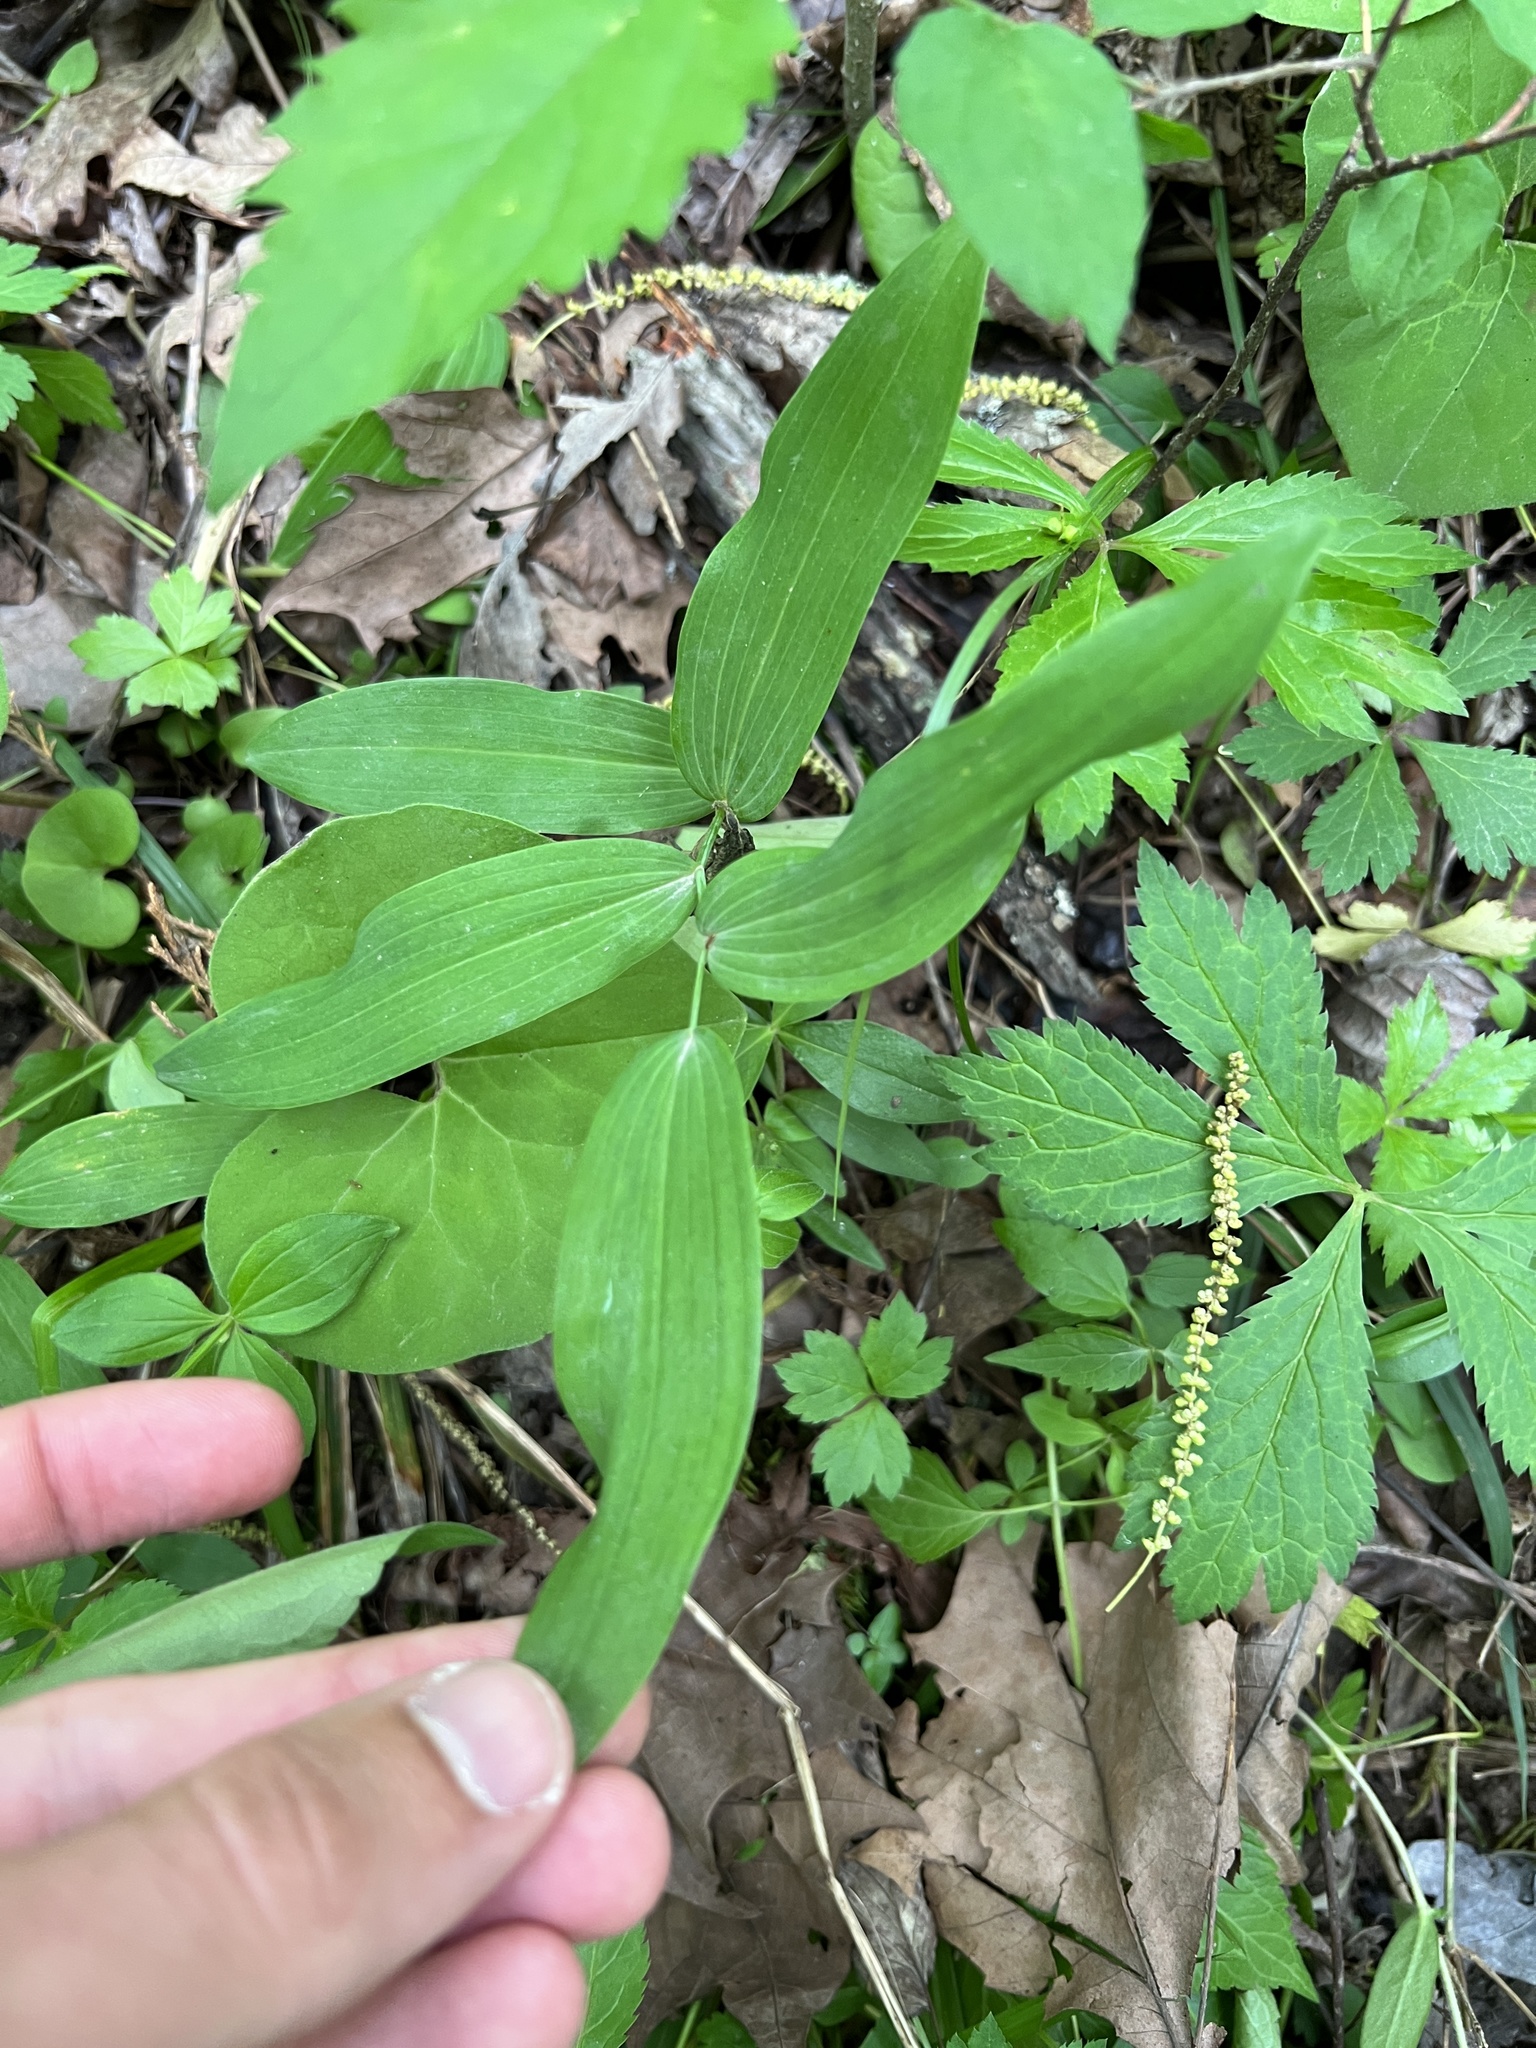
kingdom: Plantae
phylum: Tracheophyta
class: Liliopsida
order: Asparagales
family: Asparagaceae
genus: Polygonatum
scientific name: Polygonatum biflorum
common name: American solomon's-seal
